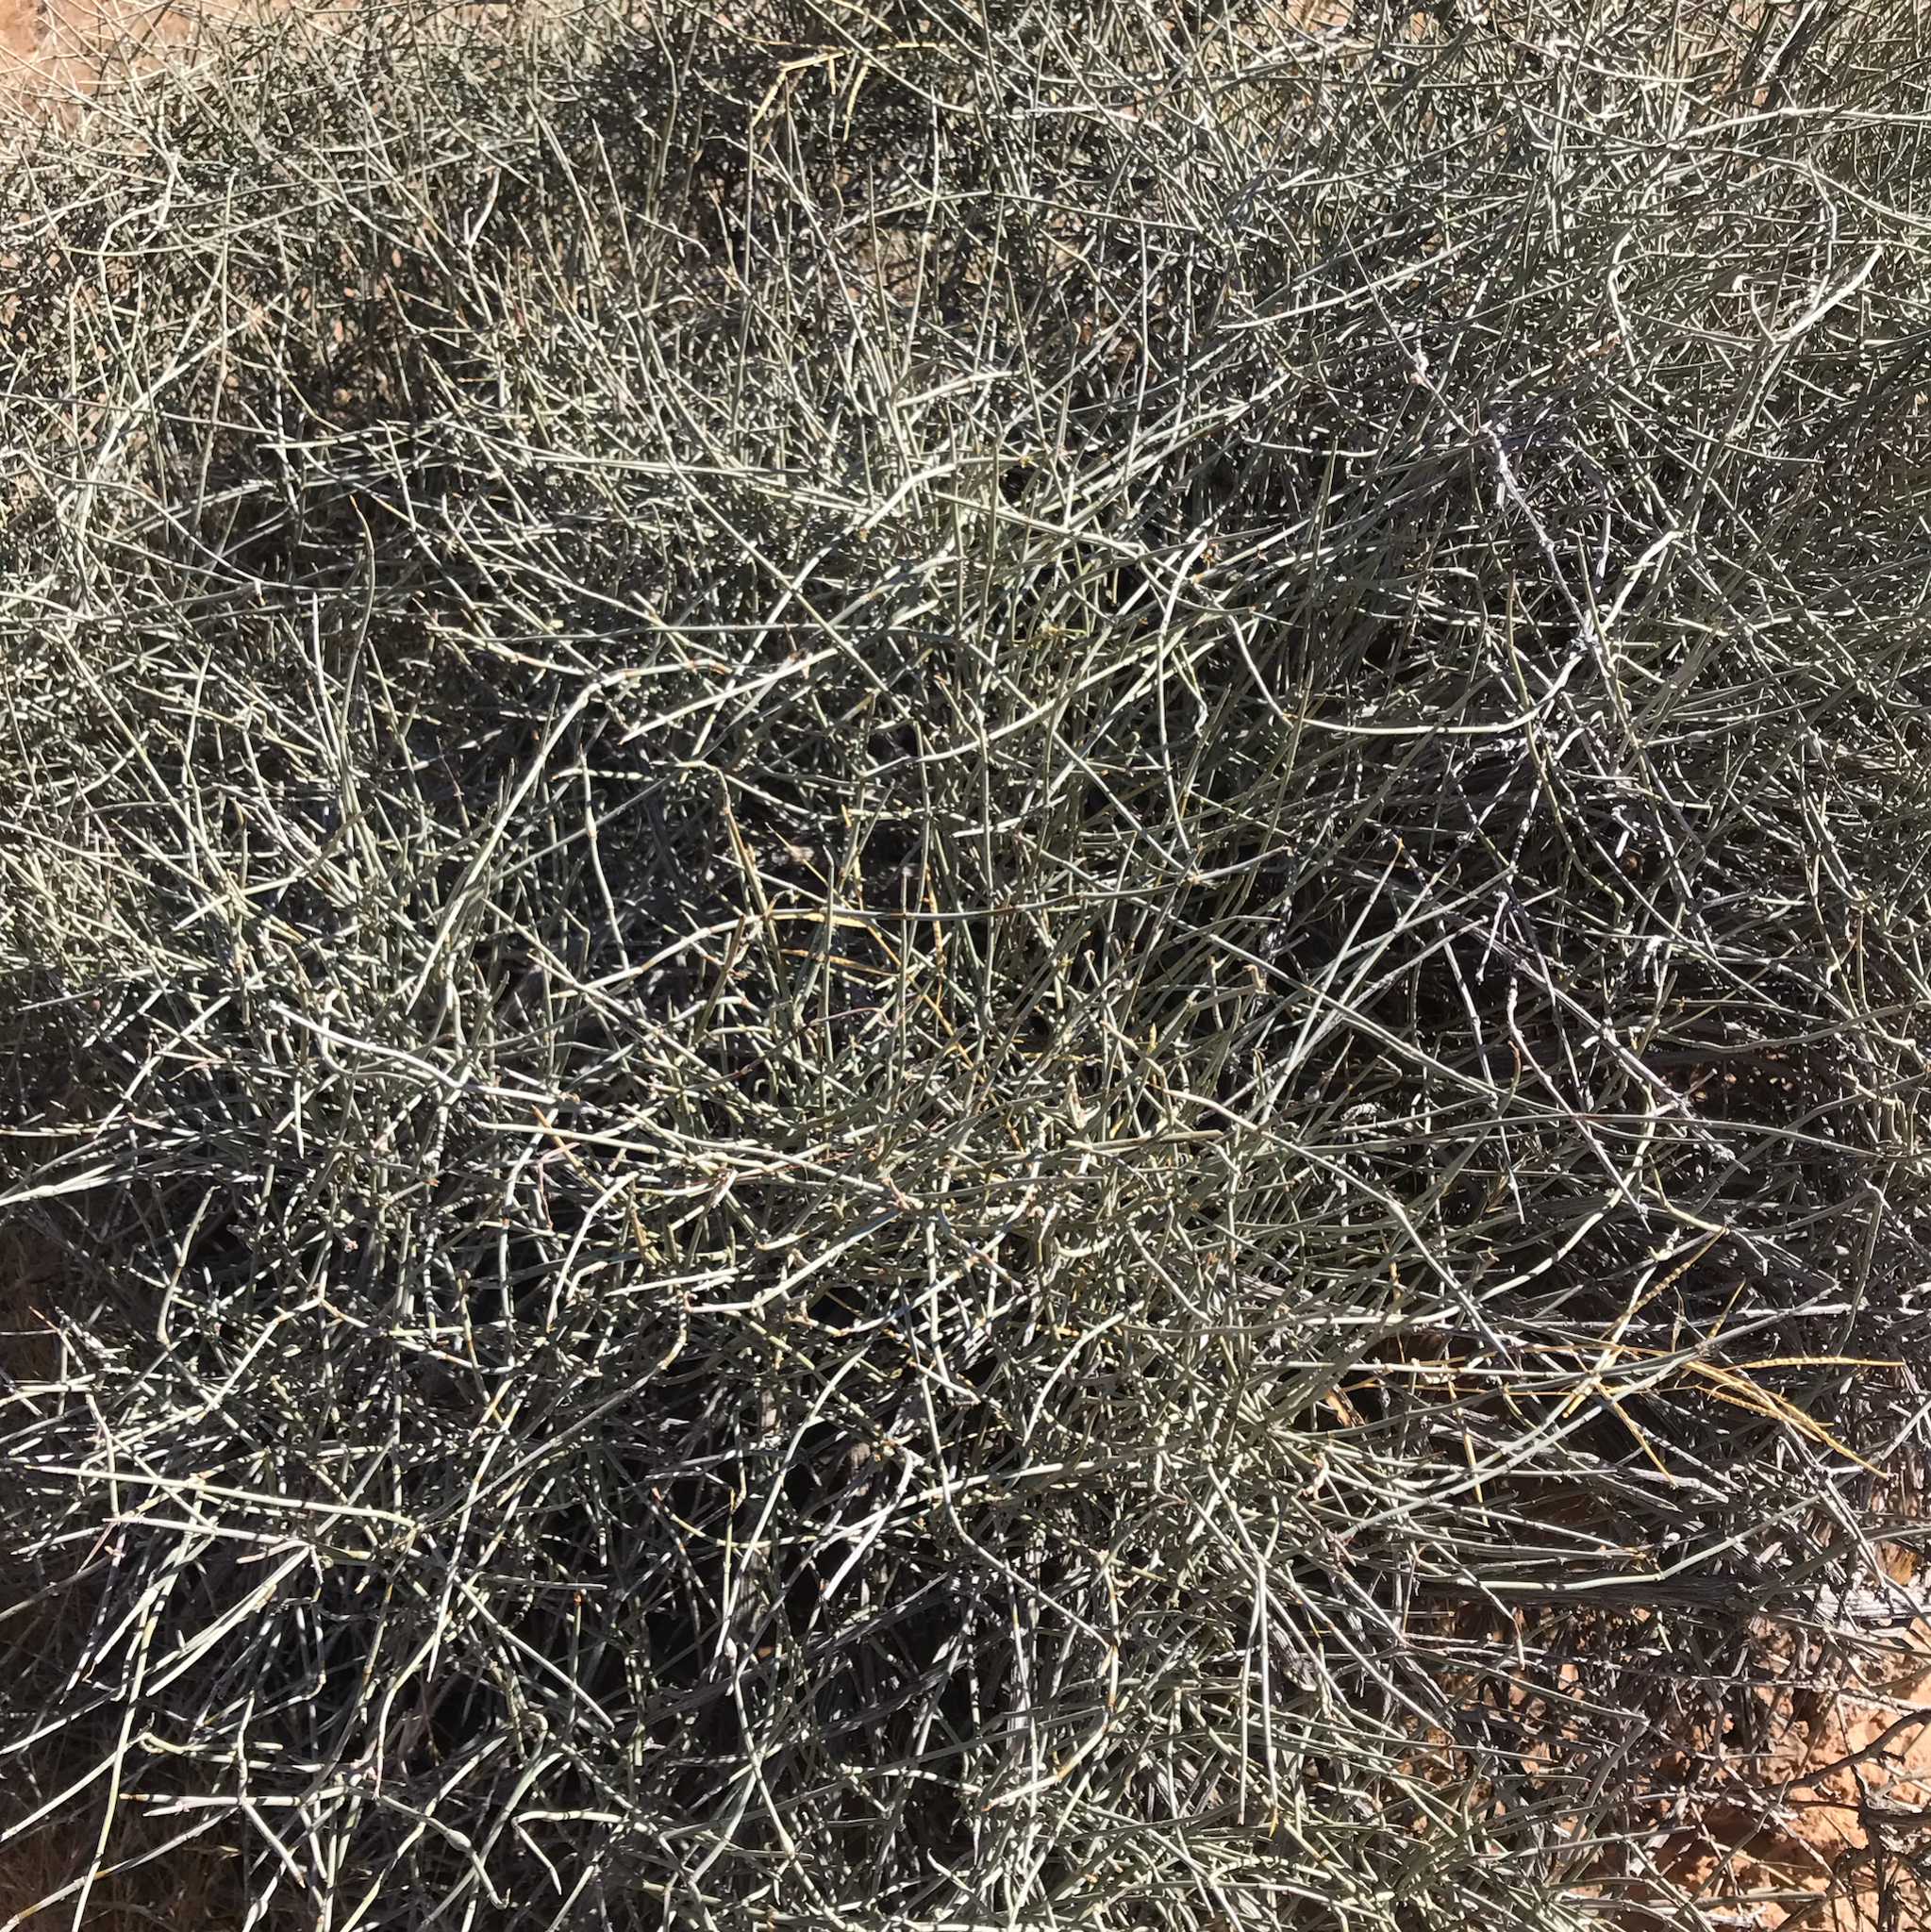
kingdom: Plantae
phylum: Tracheophyta
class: Gnetopsida
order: Ephedrales
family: Ephedraceae
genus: Ephedra
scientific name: Ephedra nevadensis
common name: Gray ephedra
